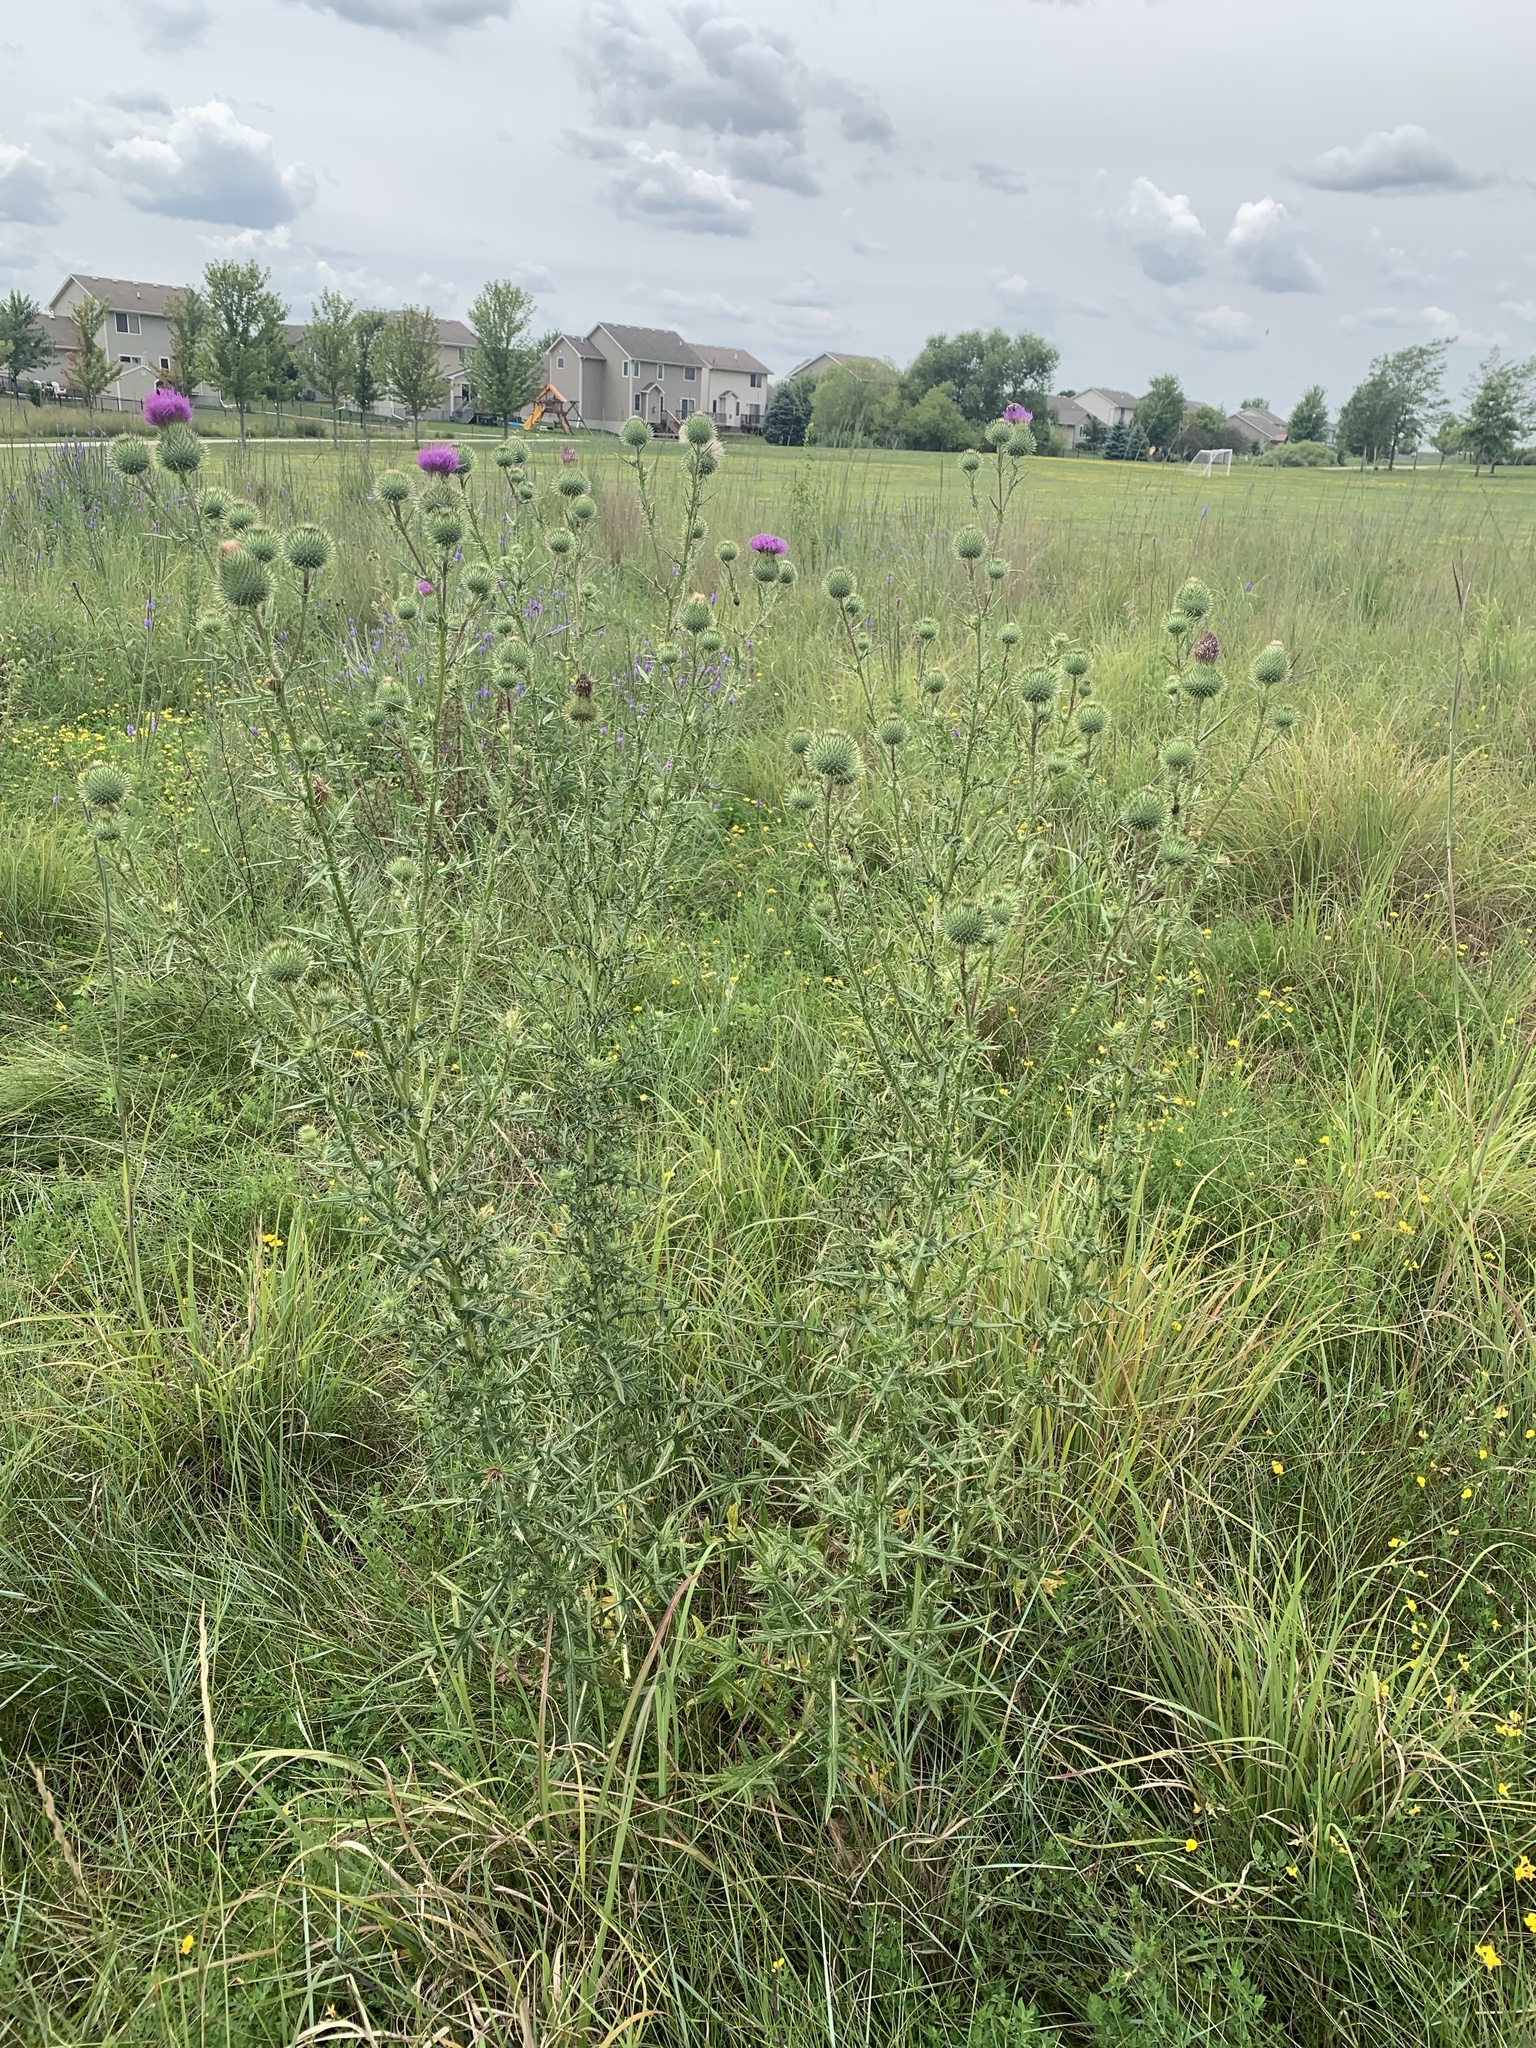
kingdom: Plantae
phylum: Tracheophyta
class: Magnoliopsida
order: Asterales
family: Asteraceae
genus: Cirsium
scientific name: Cirsium vulgare
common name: Bull thistle
